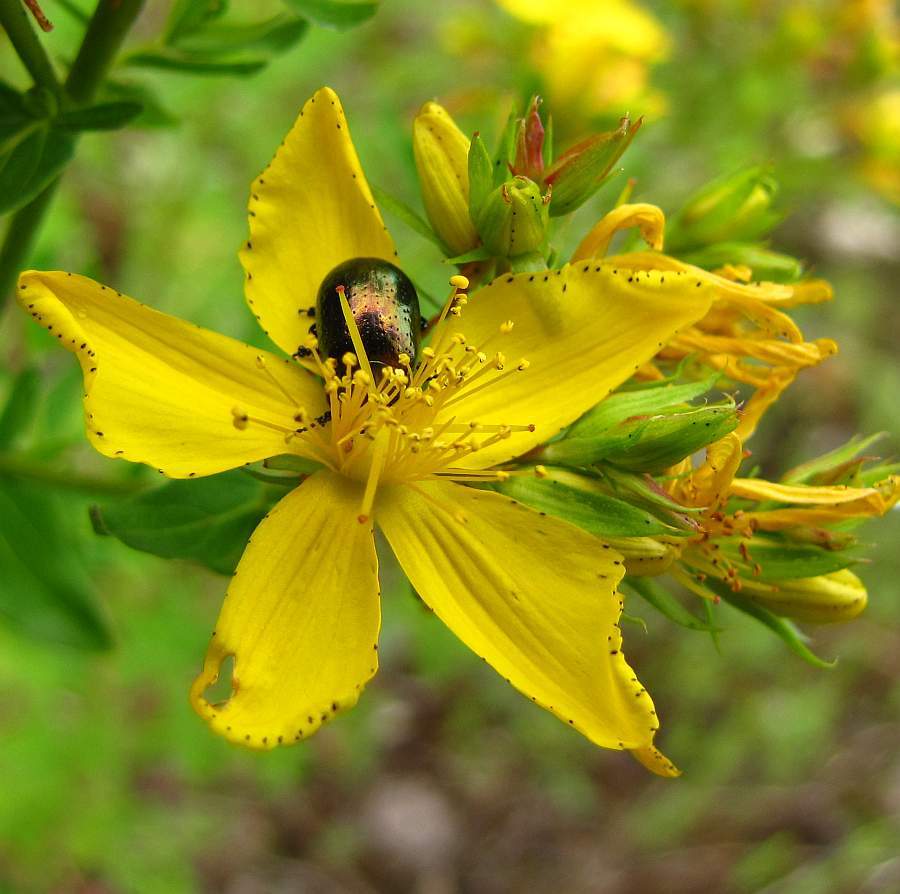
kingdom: Animalia
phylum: Arthropoda
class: Insecta
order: Coleoptera
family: Chrysomelidae
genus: Chrysolina
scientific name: Chrysolina hyperici
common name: St. johnswort beetle
